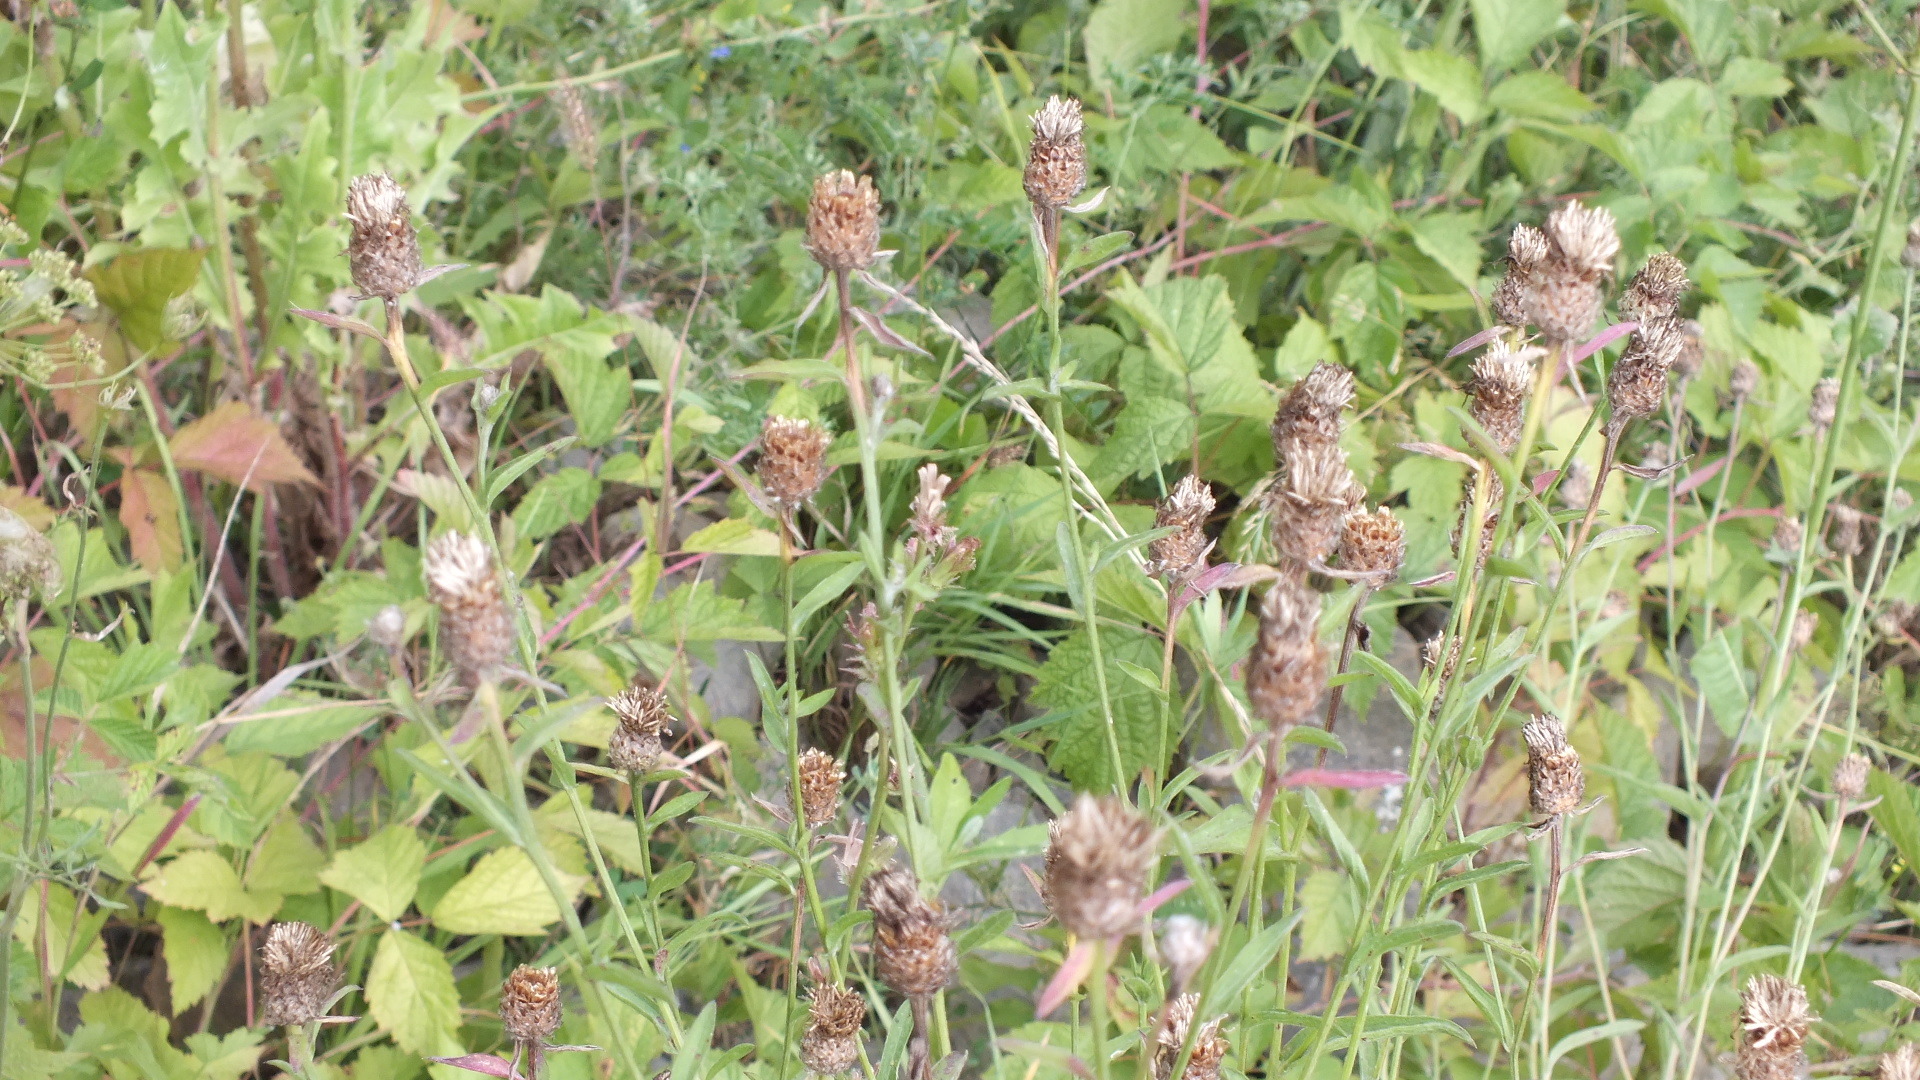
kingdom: Plantae
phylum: Tracheophyta
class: Magnoliopsida
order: Asterales
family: Asteraceae
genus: Centaurea
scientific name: Centaurea jacea
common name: Brown knapweed
